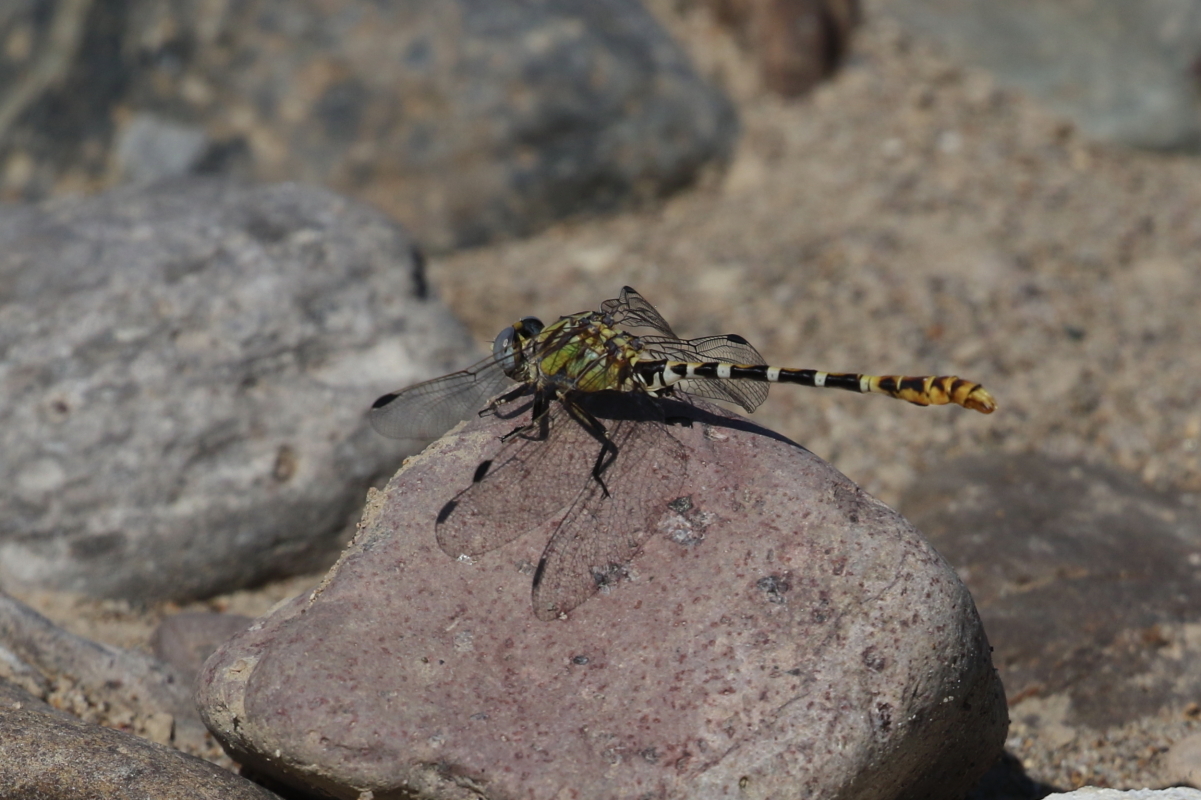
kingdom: Animalia
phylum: Arthropoda
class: Insecta
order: Odonata
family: Gomphidae
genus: Erpetogomphus
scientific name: Erpetogomphus designatus
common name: Eastern ringtail
